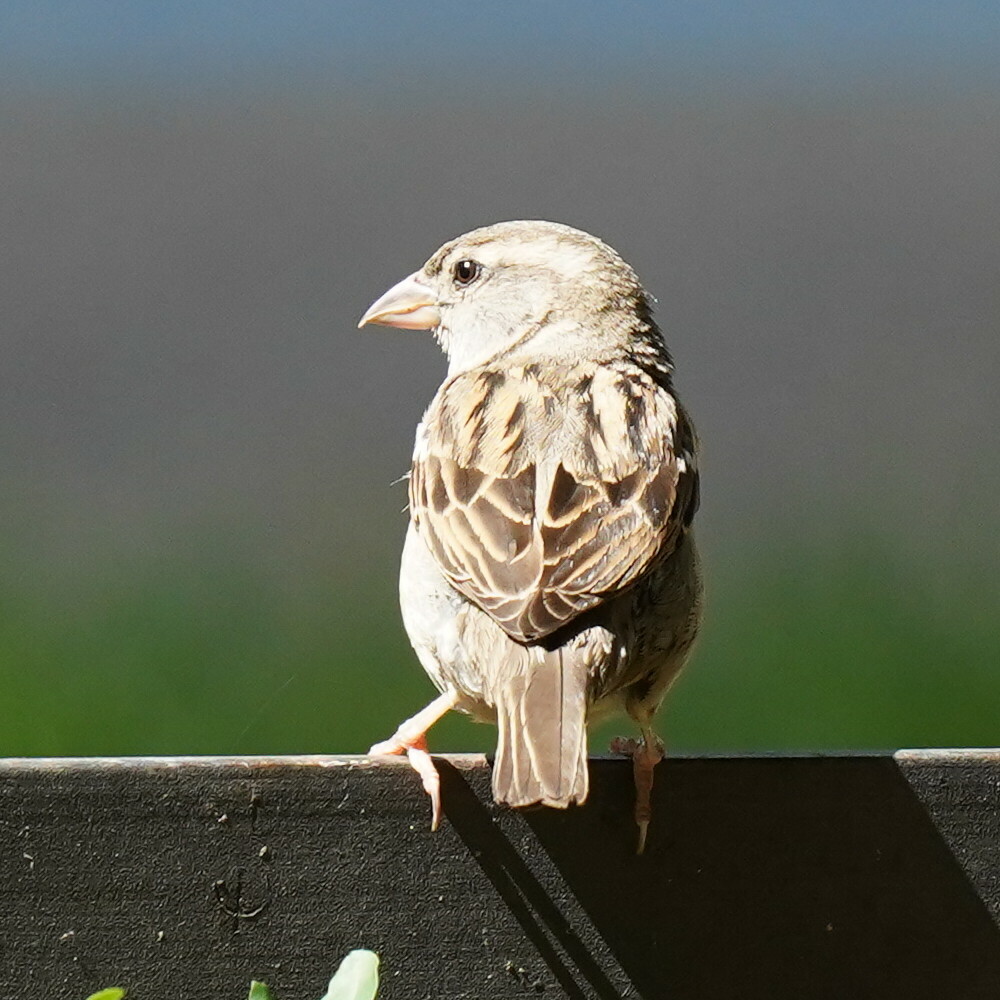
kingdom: Animalia
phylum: Chordata
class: Aves
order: Passeriformes
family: Passeridae
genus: Passer
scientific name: Passer domesticus
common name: House sparrow
